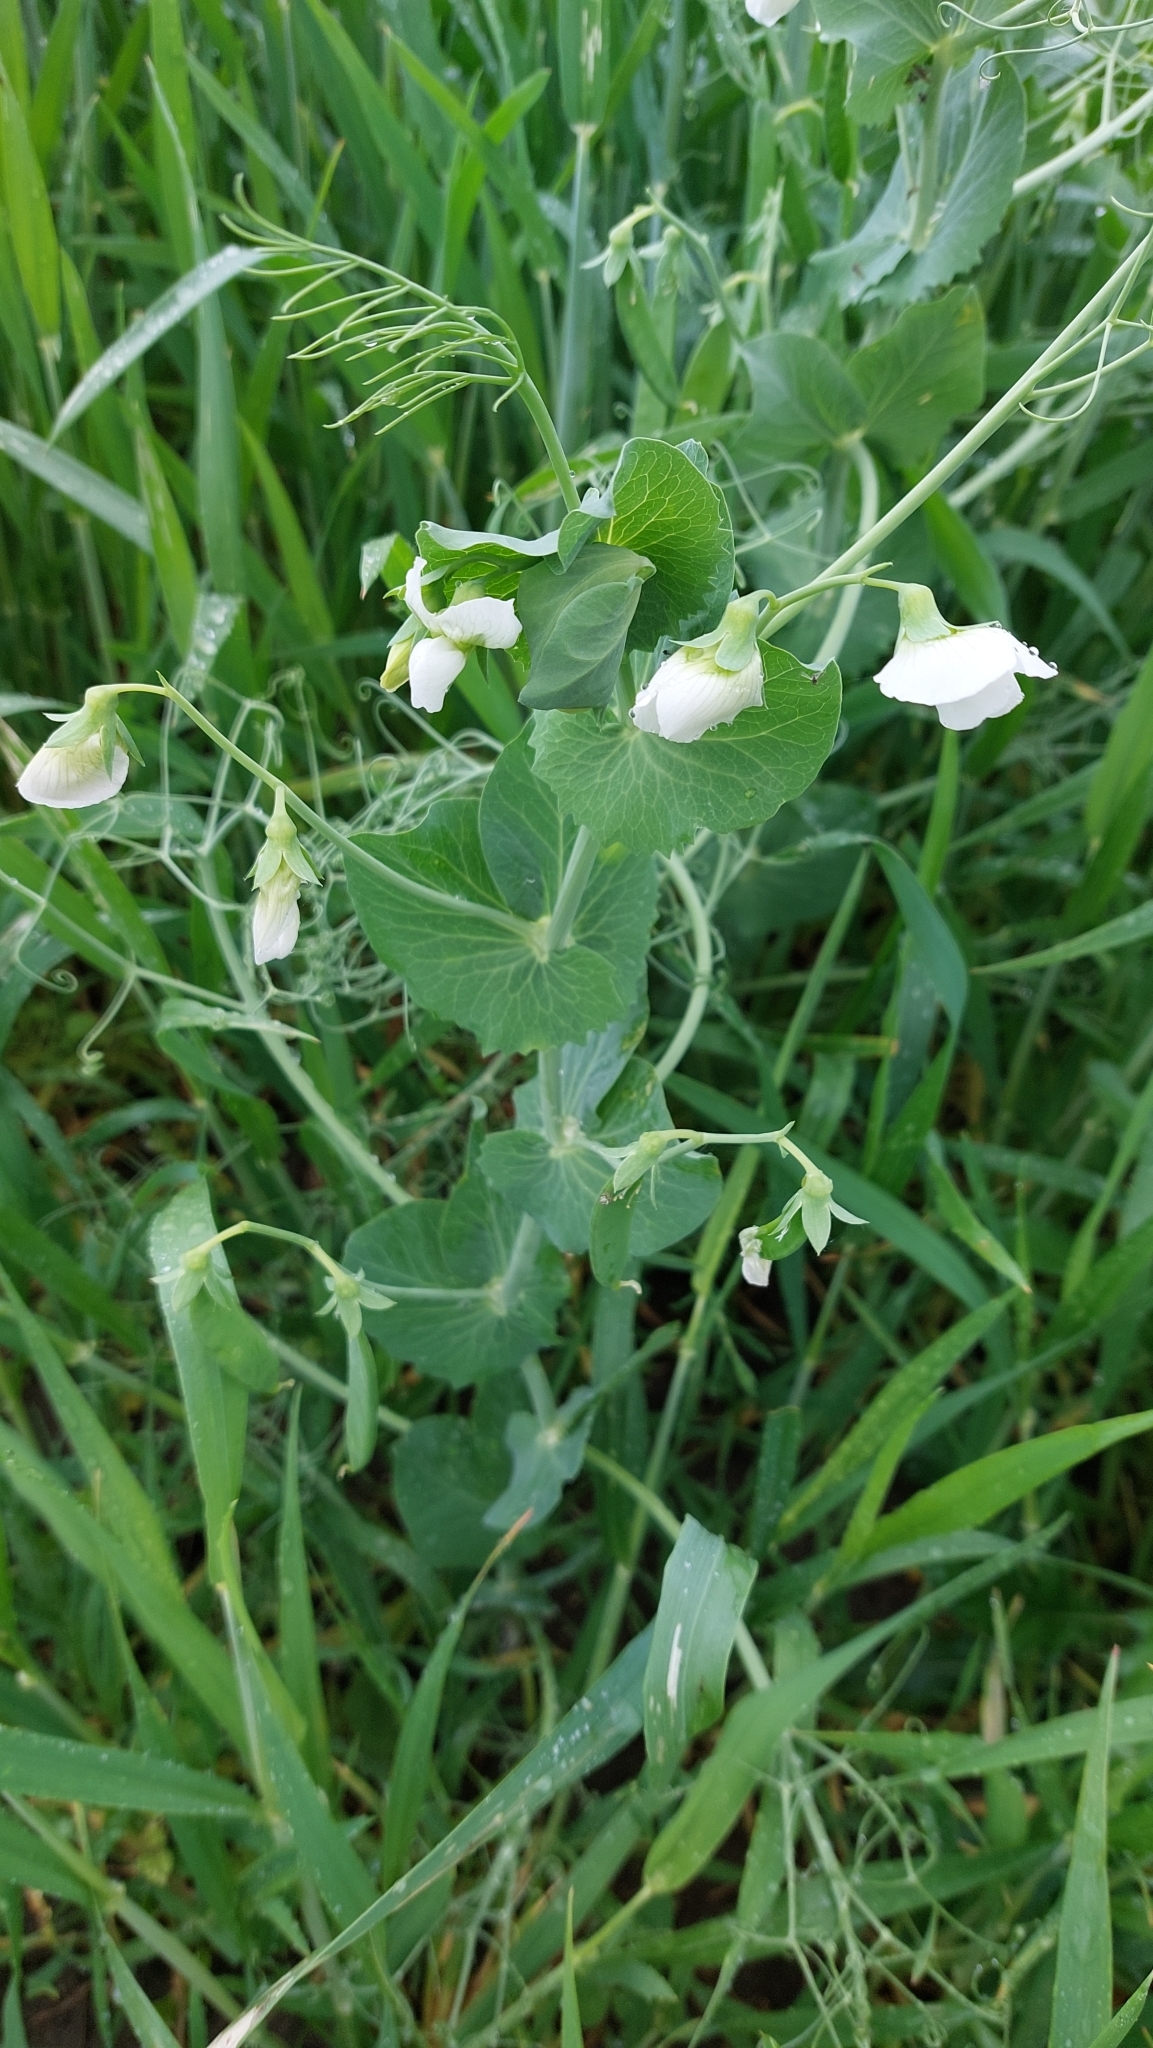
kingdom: Plantae
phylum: Tracheophyta
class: Magnoliopsida
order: Fabales
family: Fabaceae
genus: Lathyrus
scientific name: Lathyrus oleraceus
